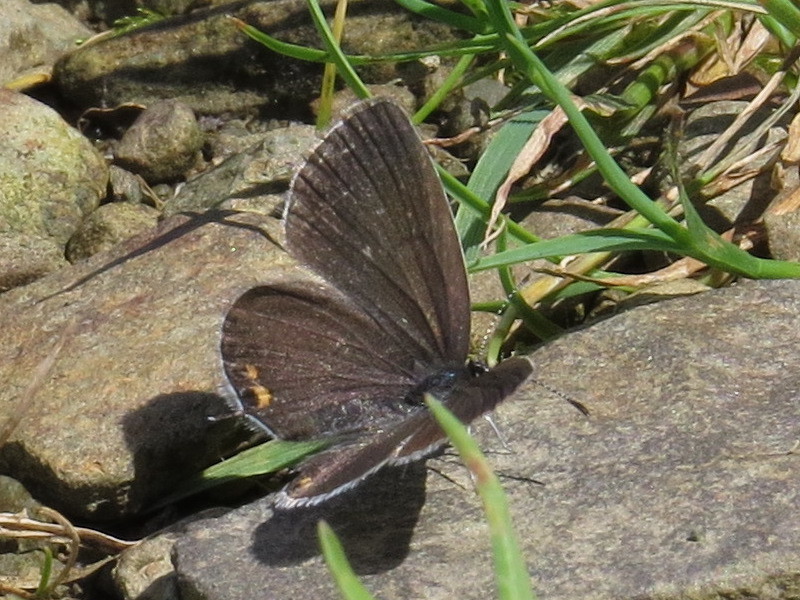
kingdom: Animalia
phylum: Arthropoda
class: Insecta
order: Lepidoptera
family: Lycaenidae
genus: Elkalyce
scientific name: Elkalyce comyntas
